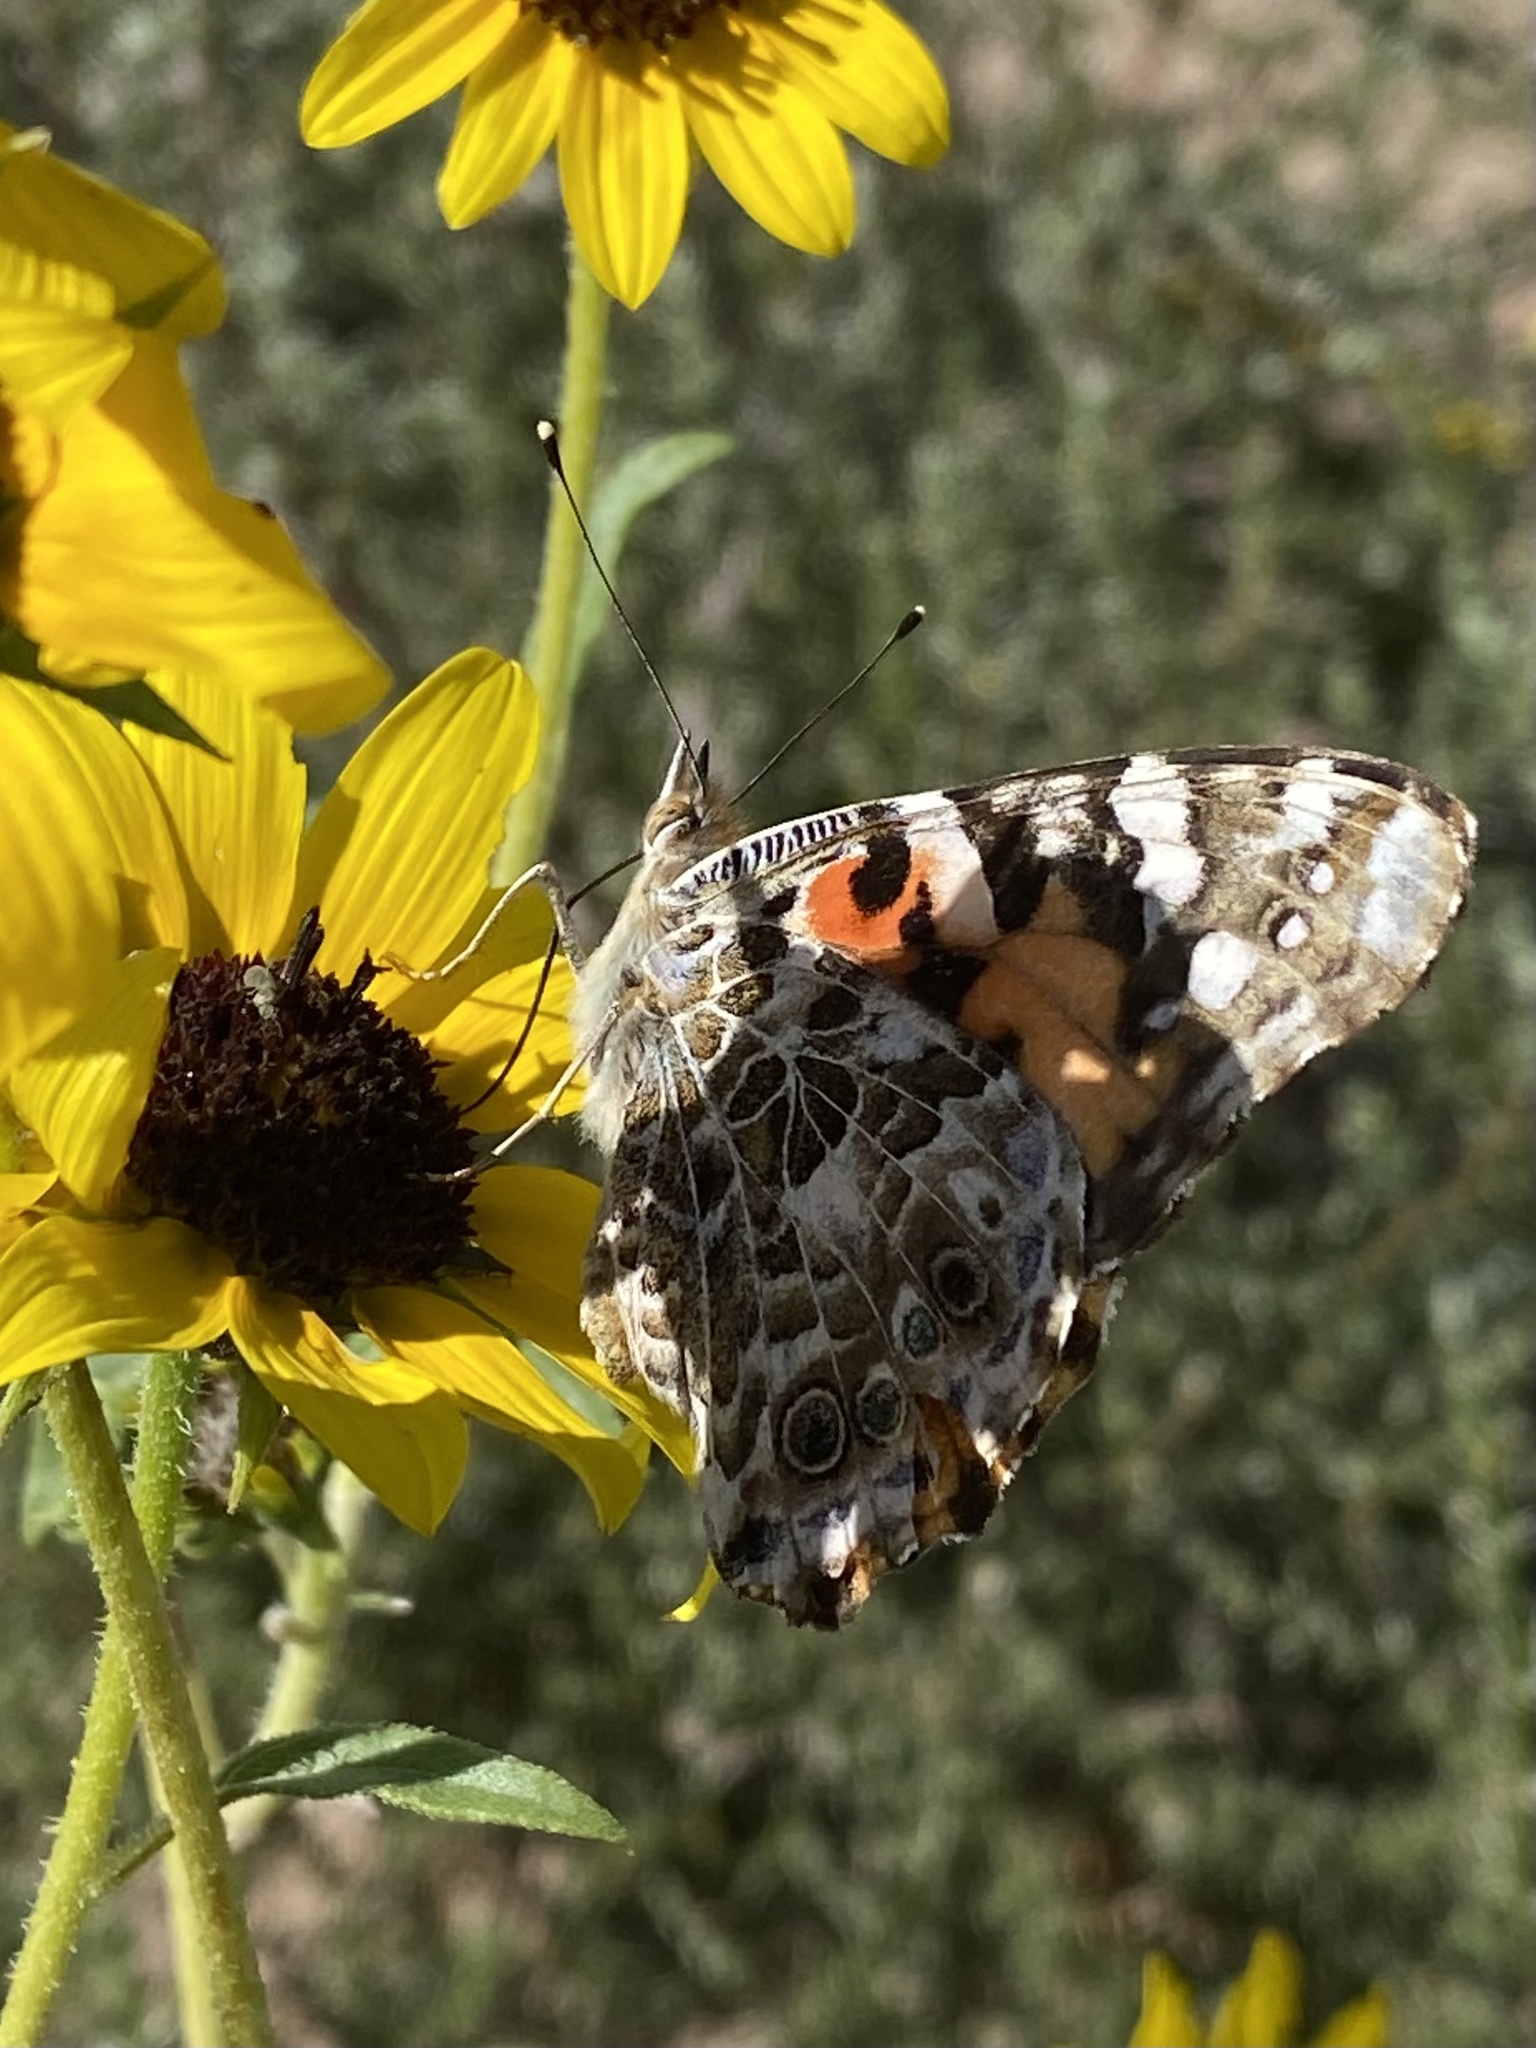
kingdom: Animalia
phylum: Arthropoda
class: Insecta
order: Lepidoptera
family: Nymphalidae
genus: Vanessa
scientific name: Vanessa cardui
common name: Painted lady
